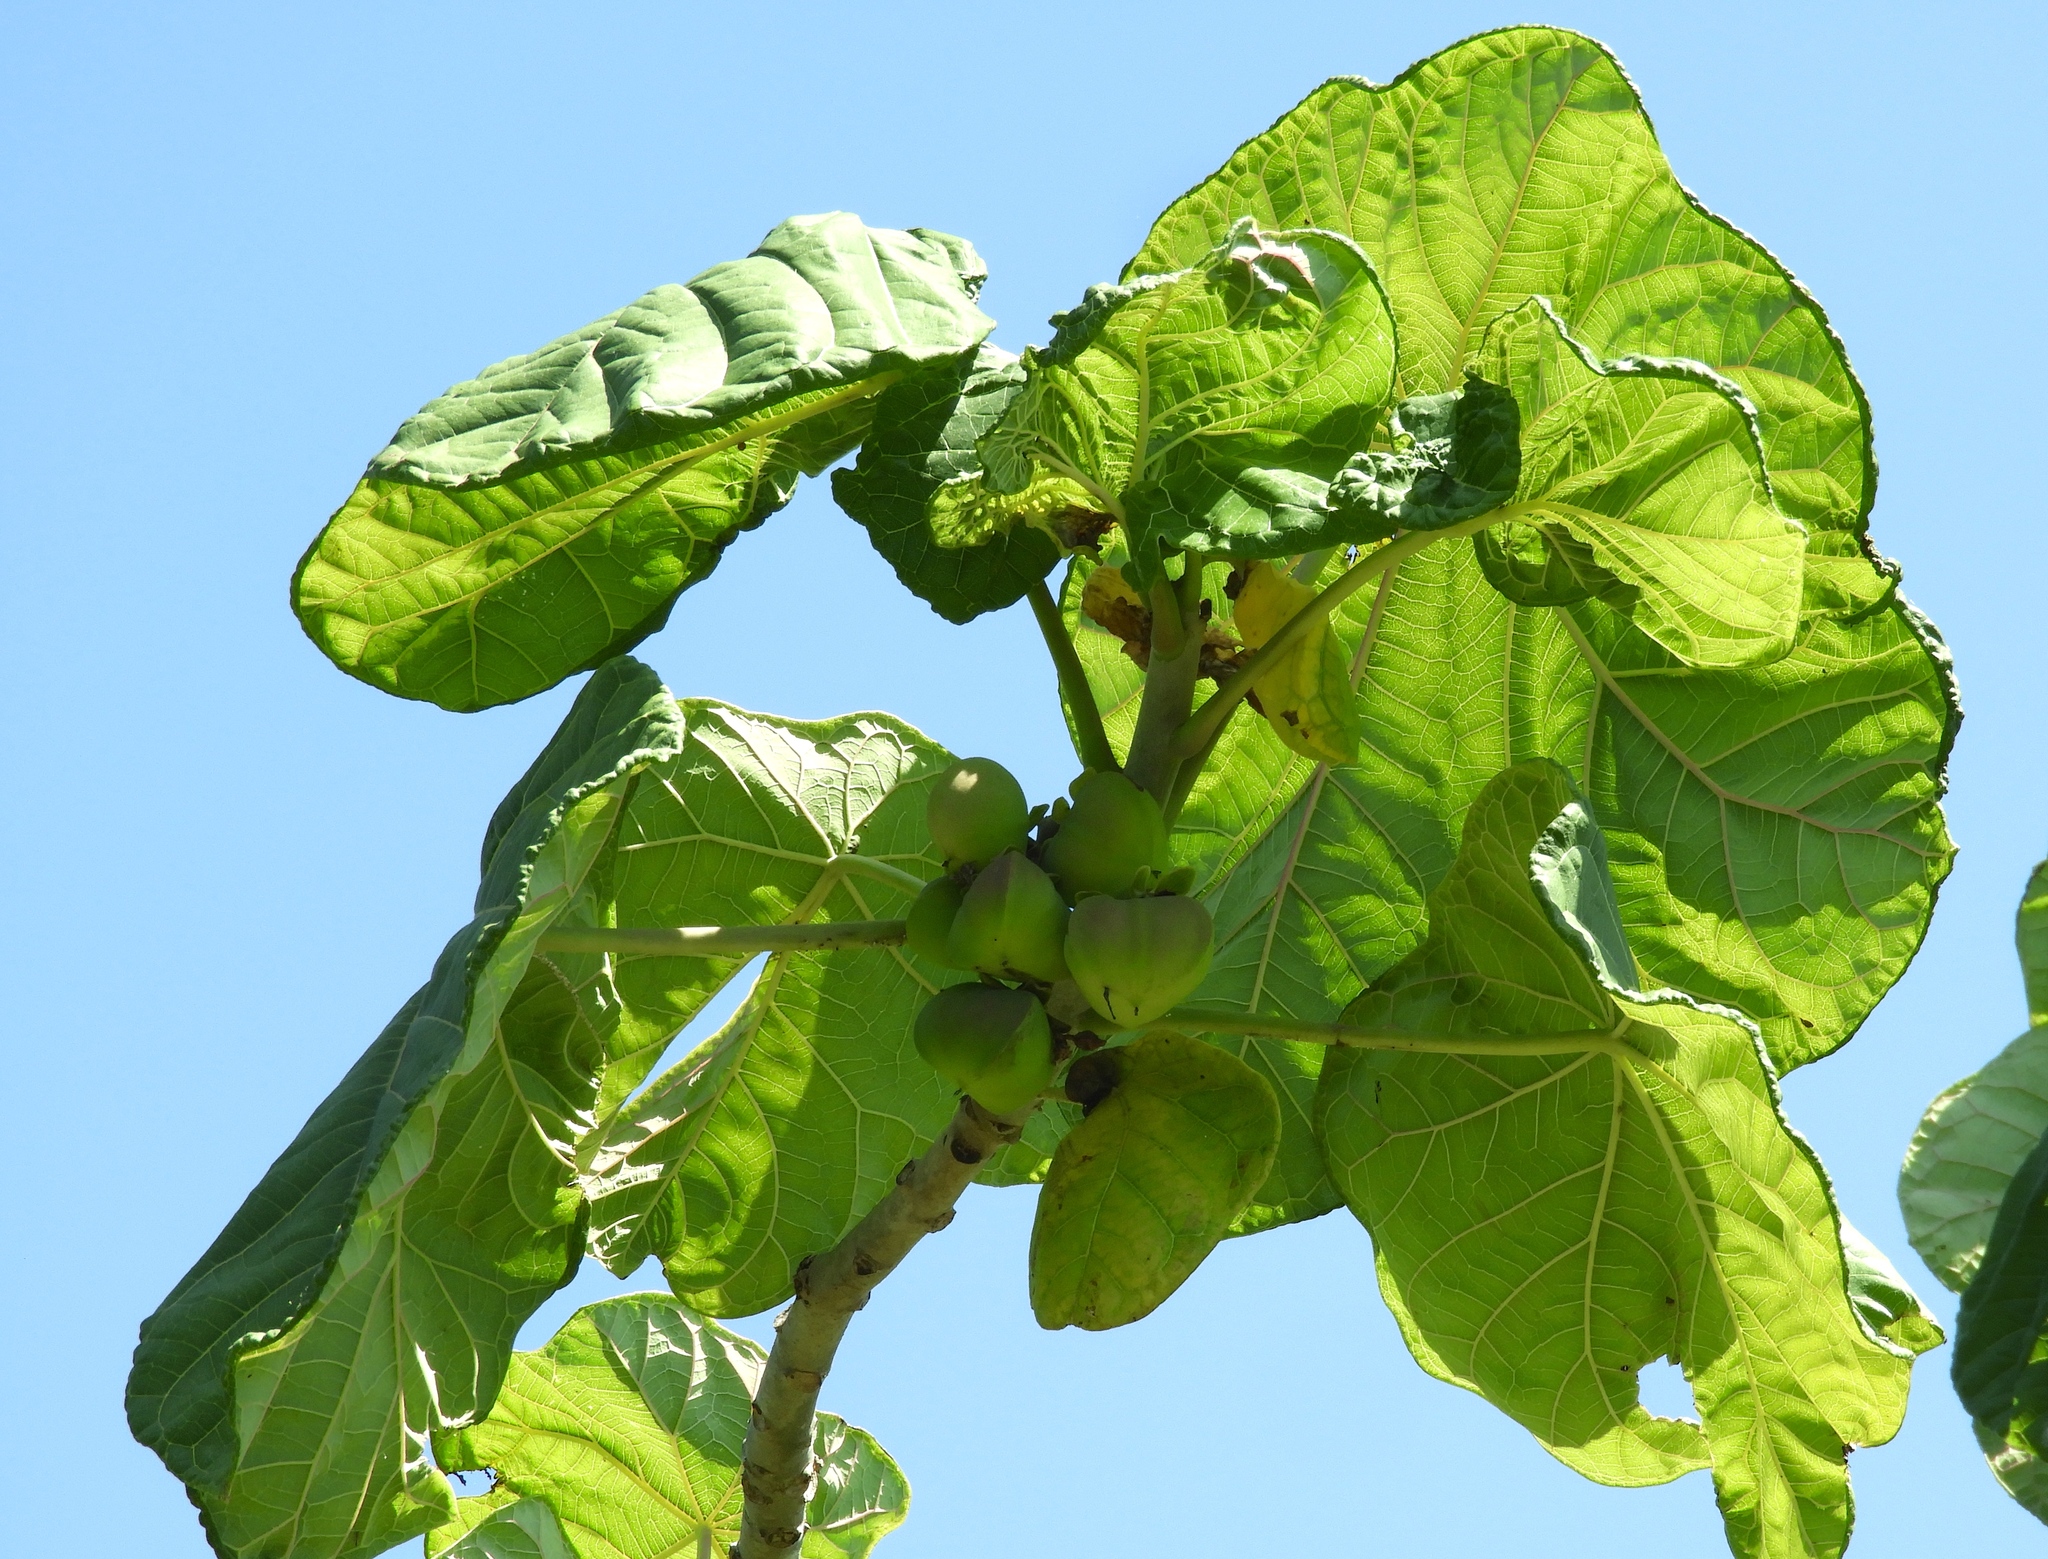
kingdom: Plantae
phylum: Tracheophyta
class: Magnoliopsida
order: Malpighiales
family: Euphorbiaceae
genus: Jatropha
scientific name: Jatropha peltata
